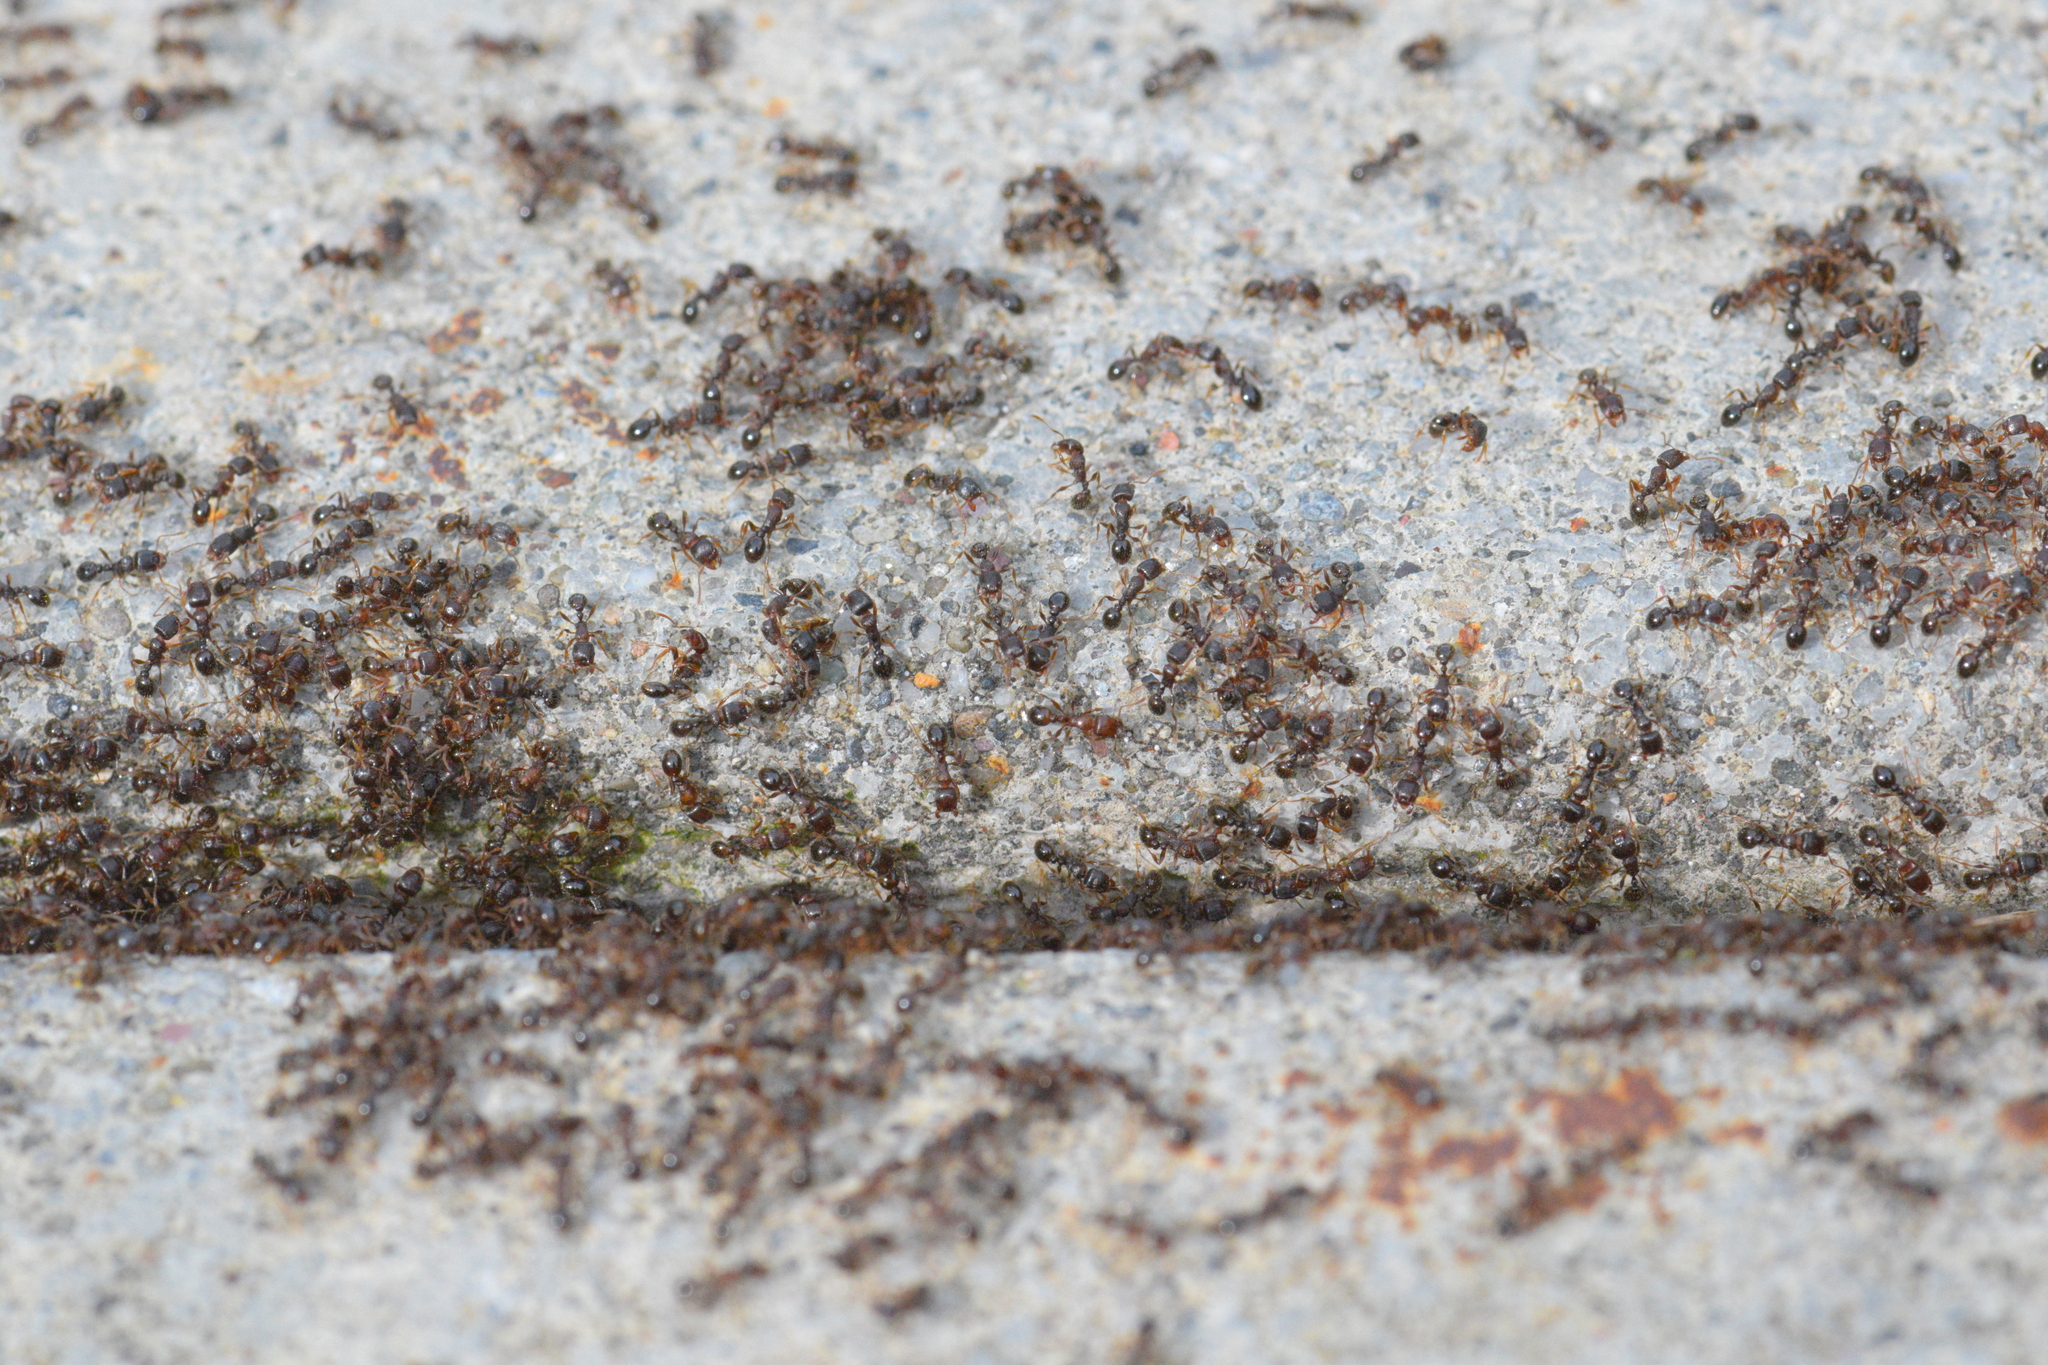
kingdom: Animalia
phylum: Arthropoda
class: Insecta
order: Hymenoptera
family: Formicidae
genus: Tetramorium
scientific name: Tetramorium immigrans
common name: Pavement ant
